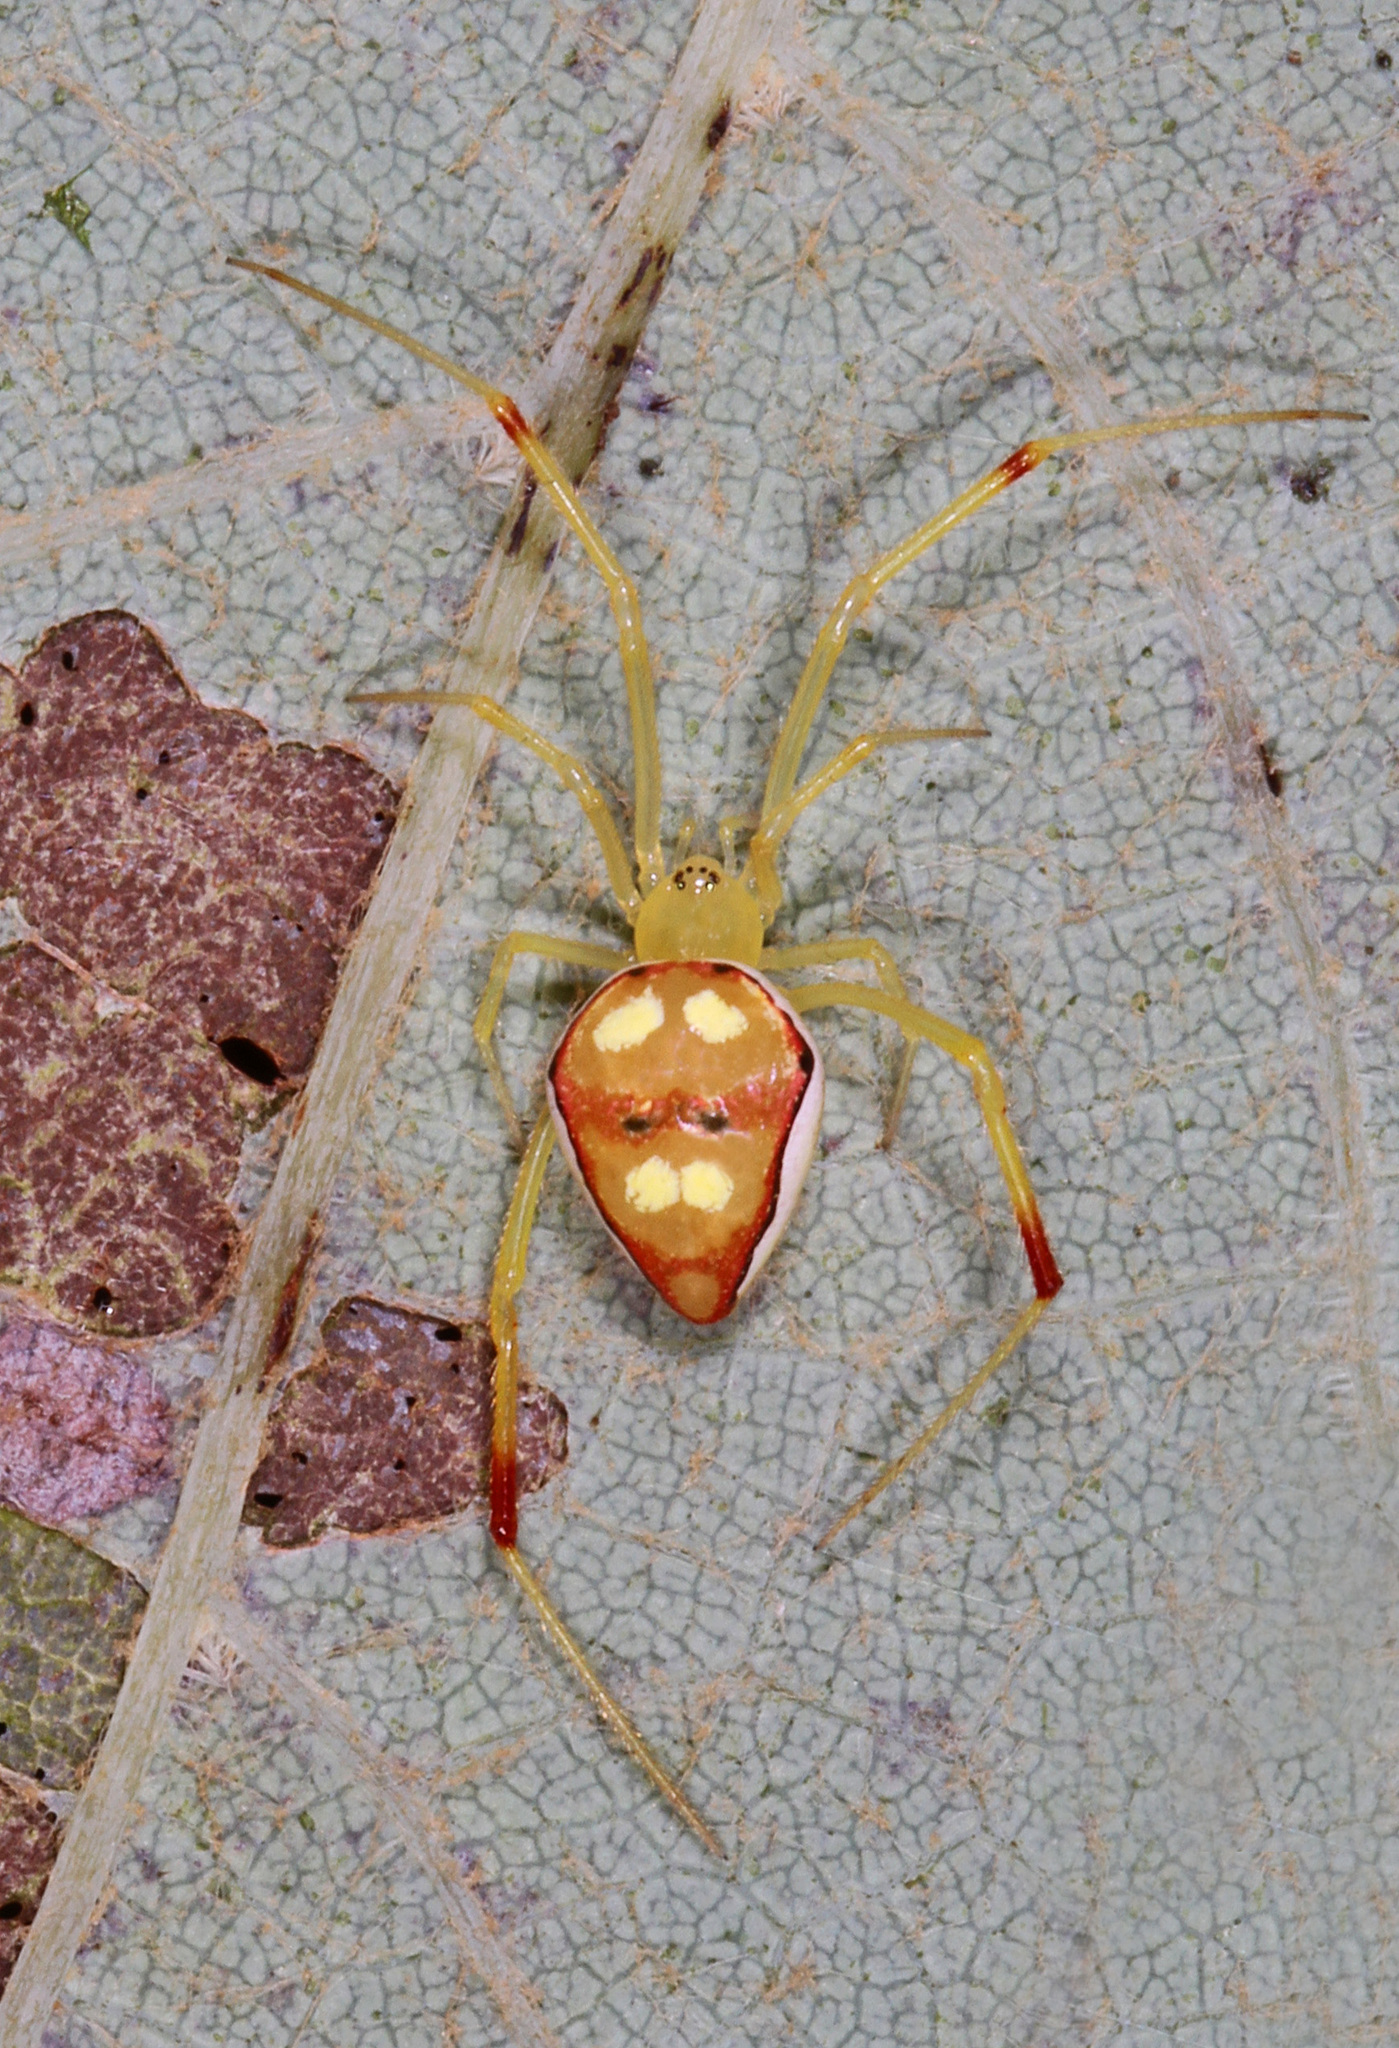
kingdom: Animalia
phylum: Arthropoda
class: Arachnida
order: Araneae
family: Theridiidae
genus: Spintharus
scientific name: Spintharus flavidus
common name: Cobweb spiders
